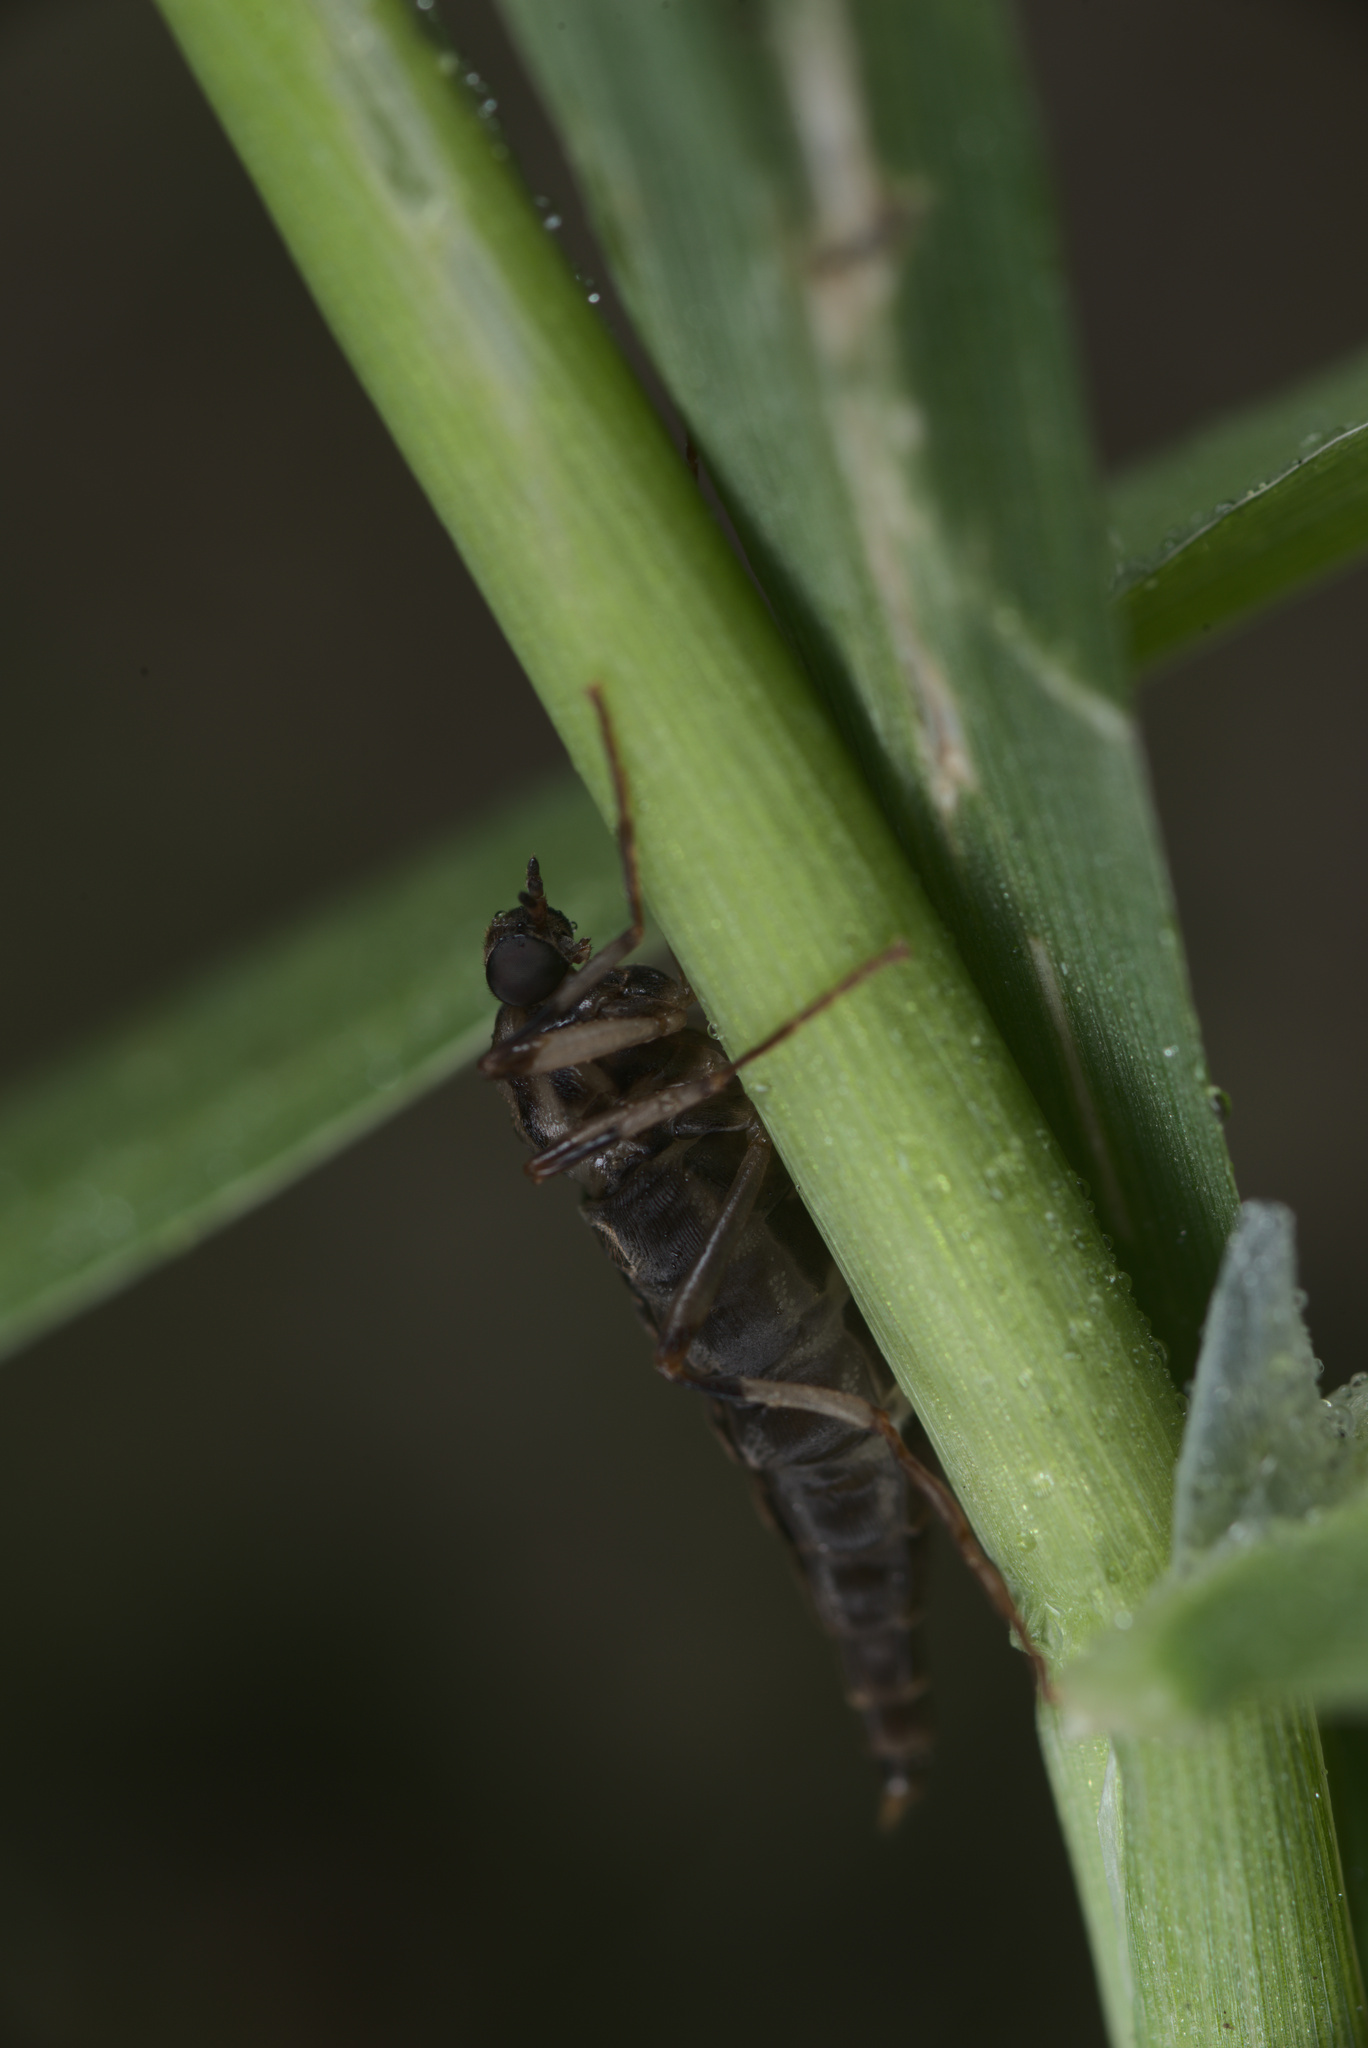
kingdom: Animalia
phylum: Arthropoda
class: Insecta
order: Diptera
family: Stratiomyidae
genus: Boreoides
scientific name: Boreoides tasmaniensis
